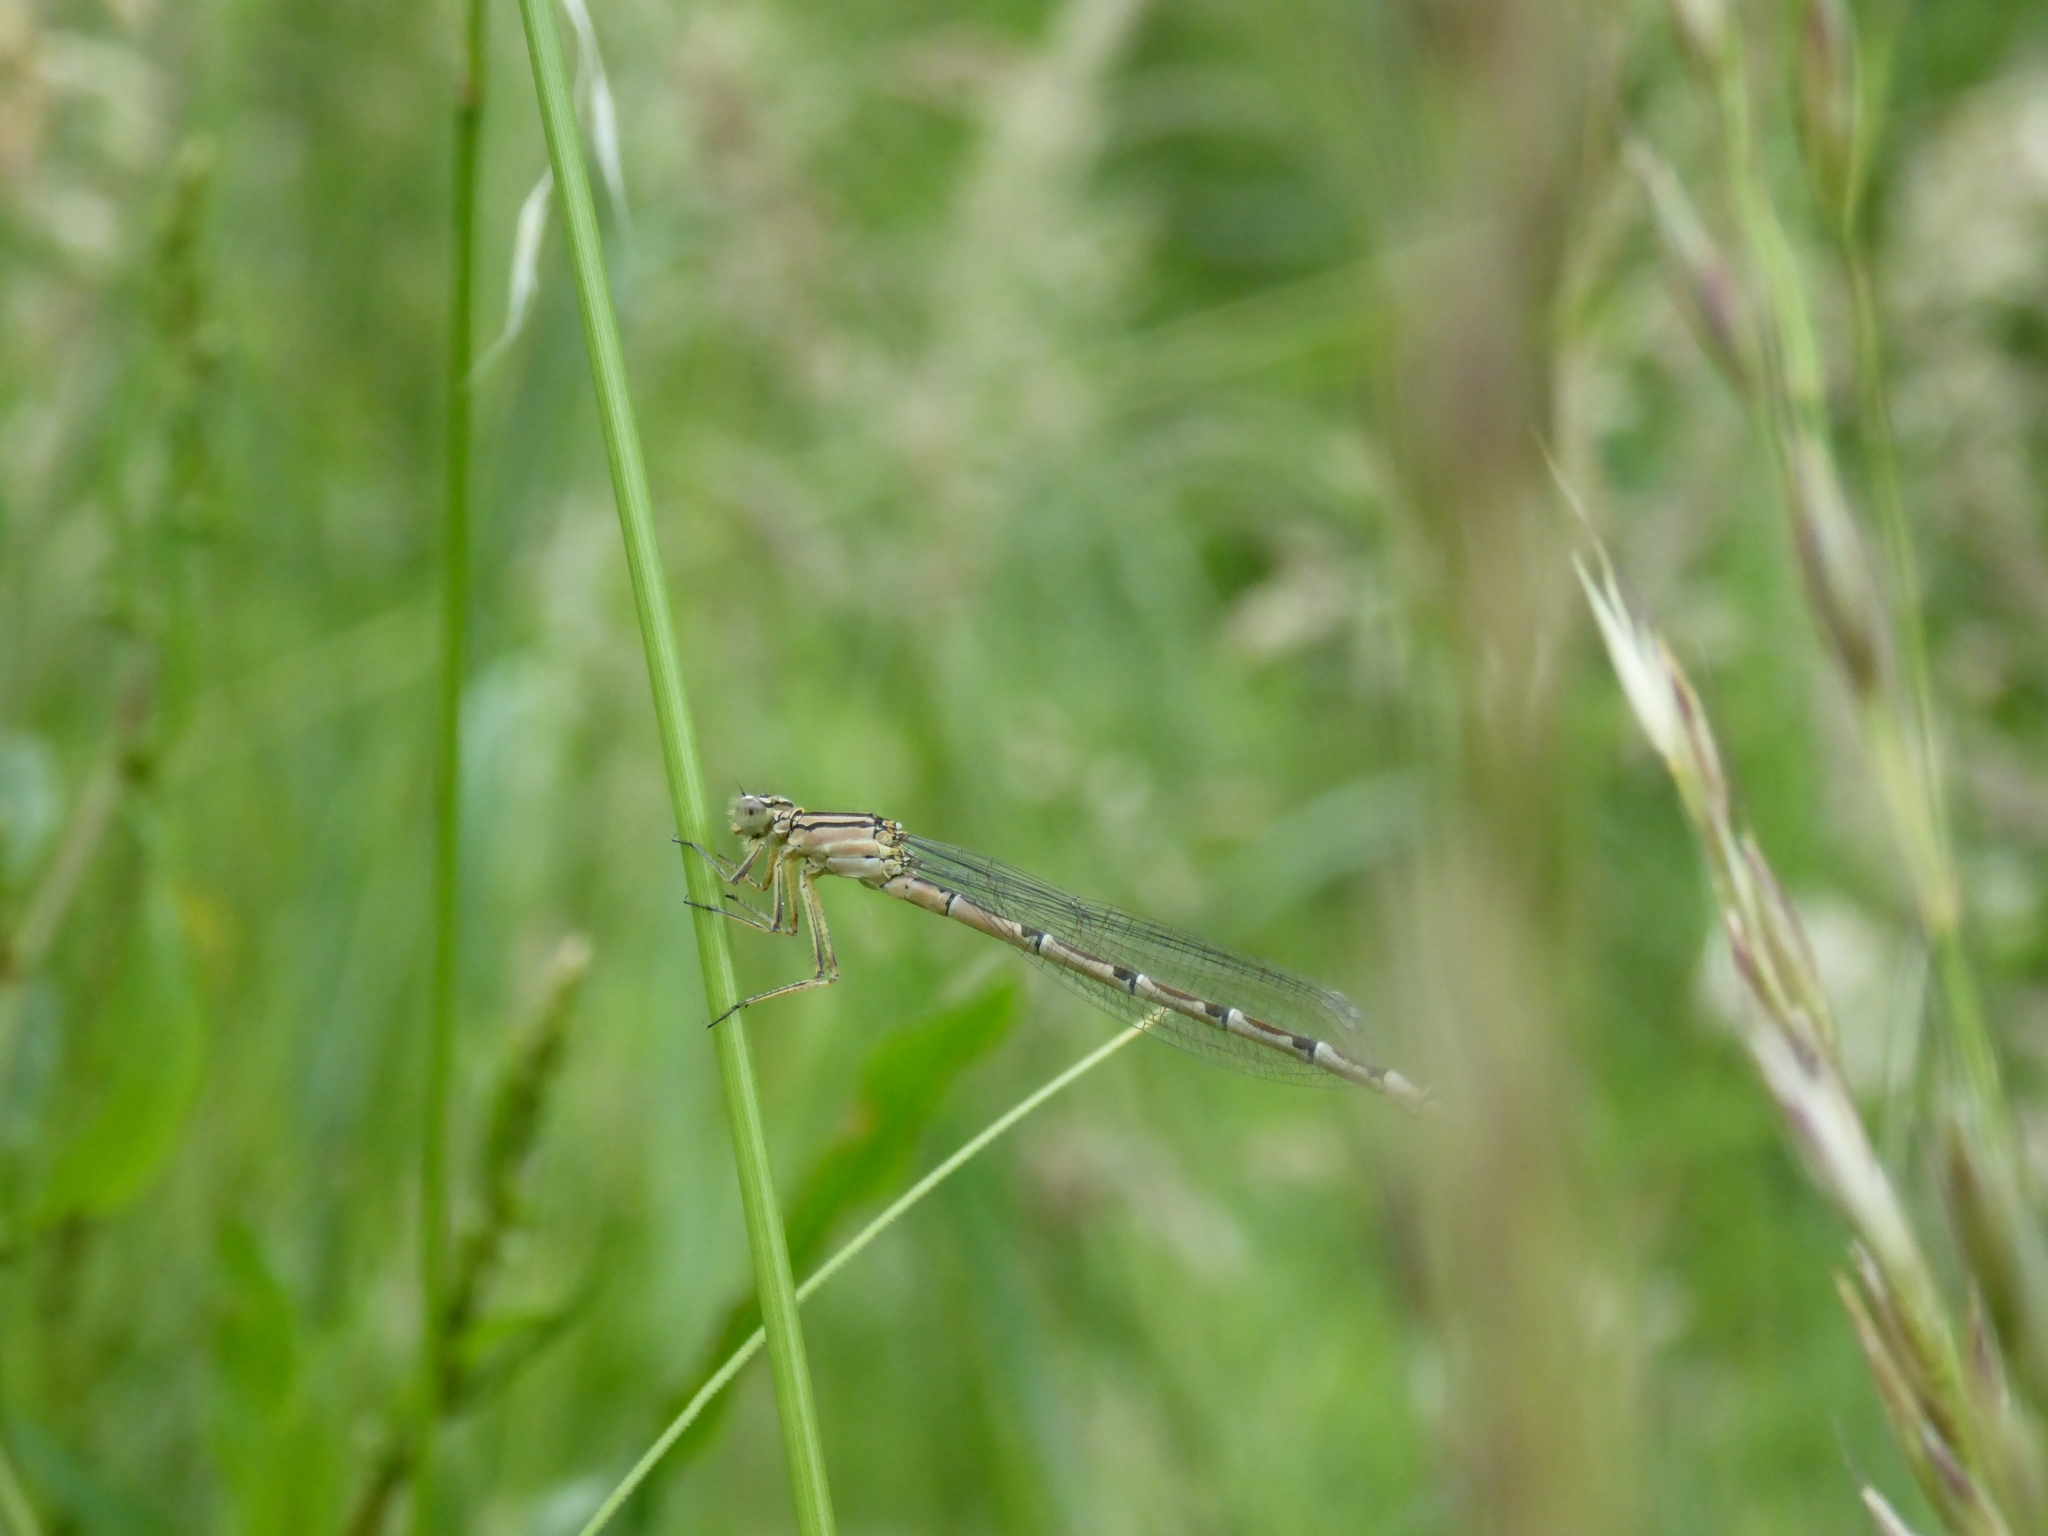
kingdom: Animalia
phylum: Arthropoda
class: Insecta
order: Odonata
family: Coenagrionidae
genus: Enallagma
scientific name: Enallagma cyathigerum
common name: Common blue damselfly
